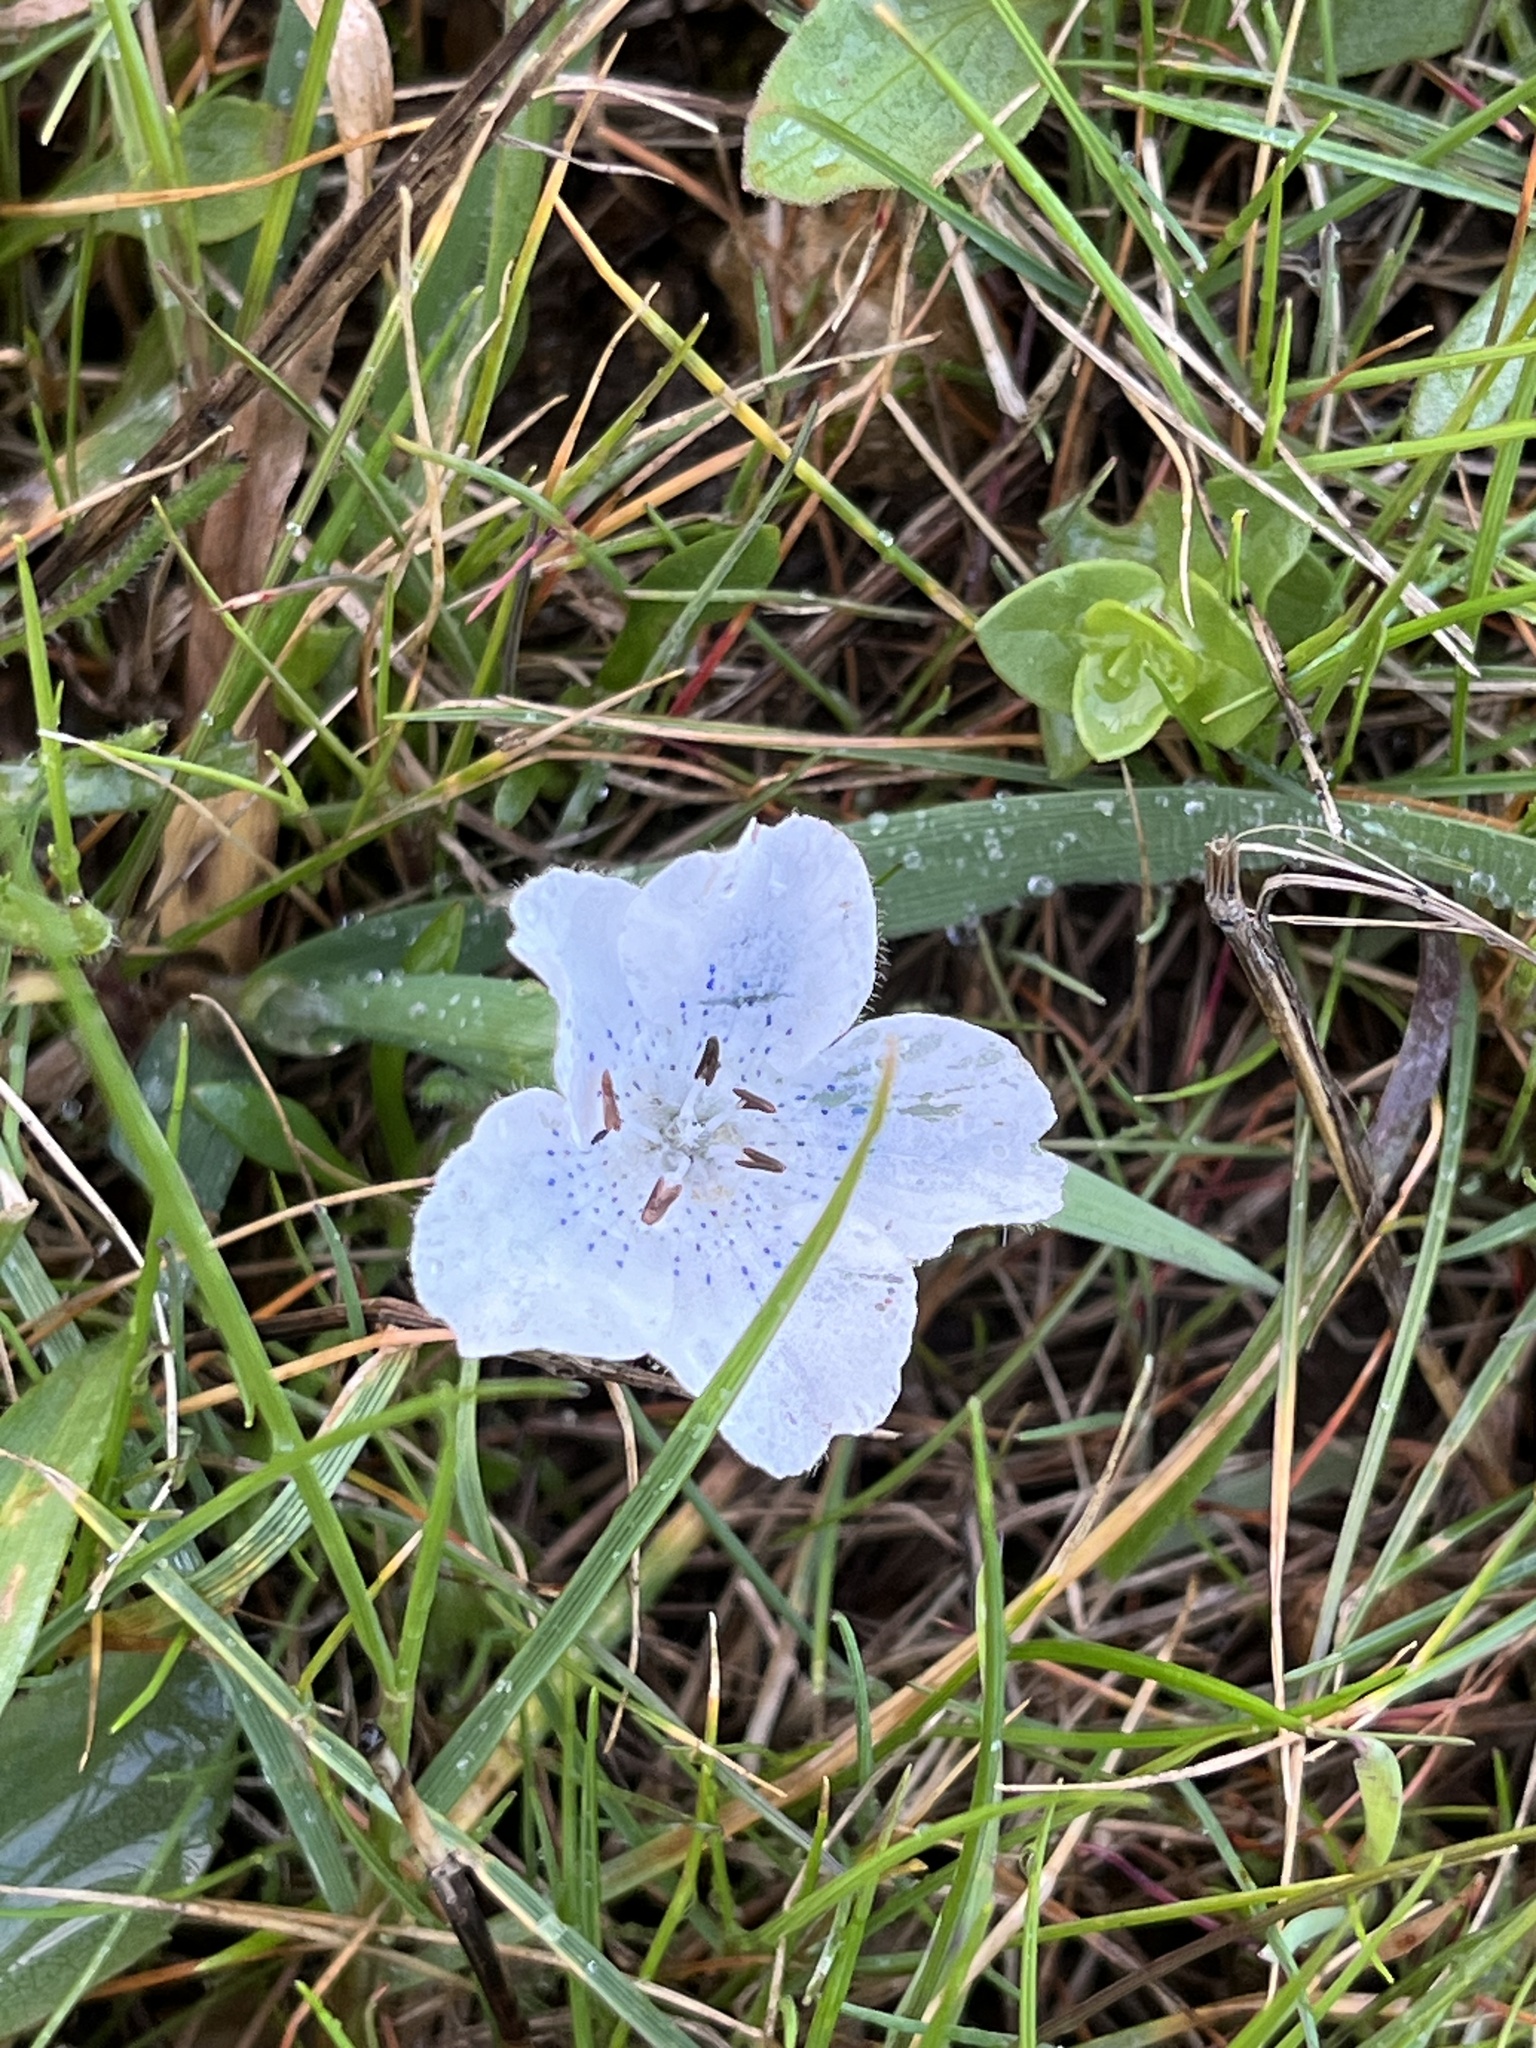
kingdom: Plantae
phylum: Tracheophyta
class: Magnoliopsida
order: Boraginales
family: Hydrophyllaceae
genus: Nemophila
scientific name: Nemophila menziesii
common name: Baby's-blue-eyes
